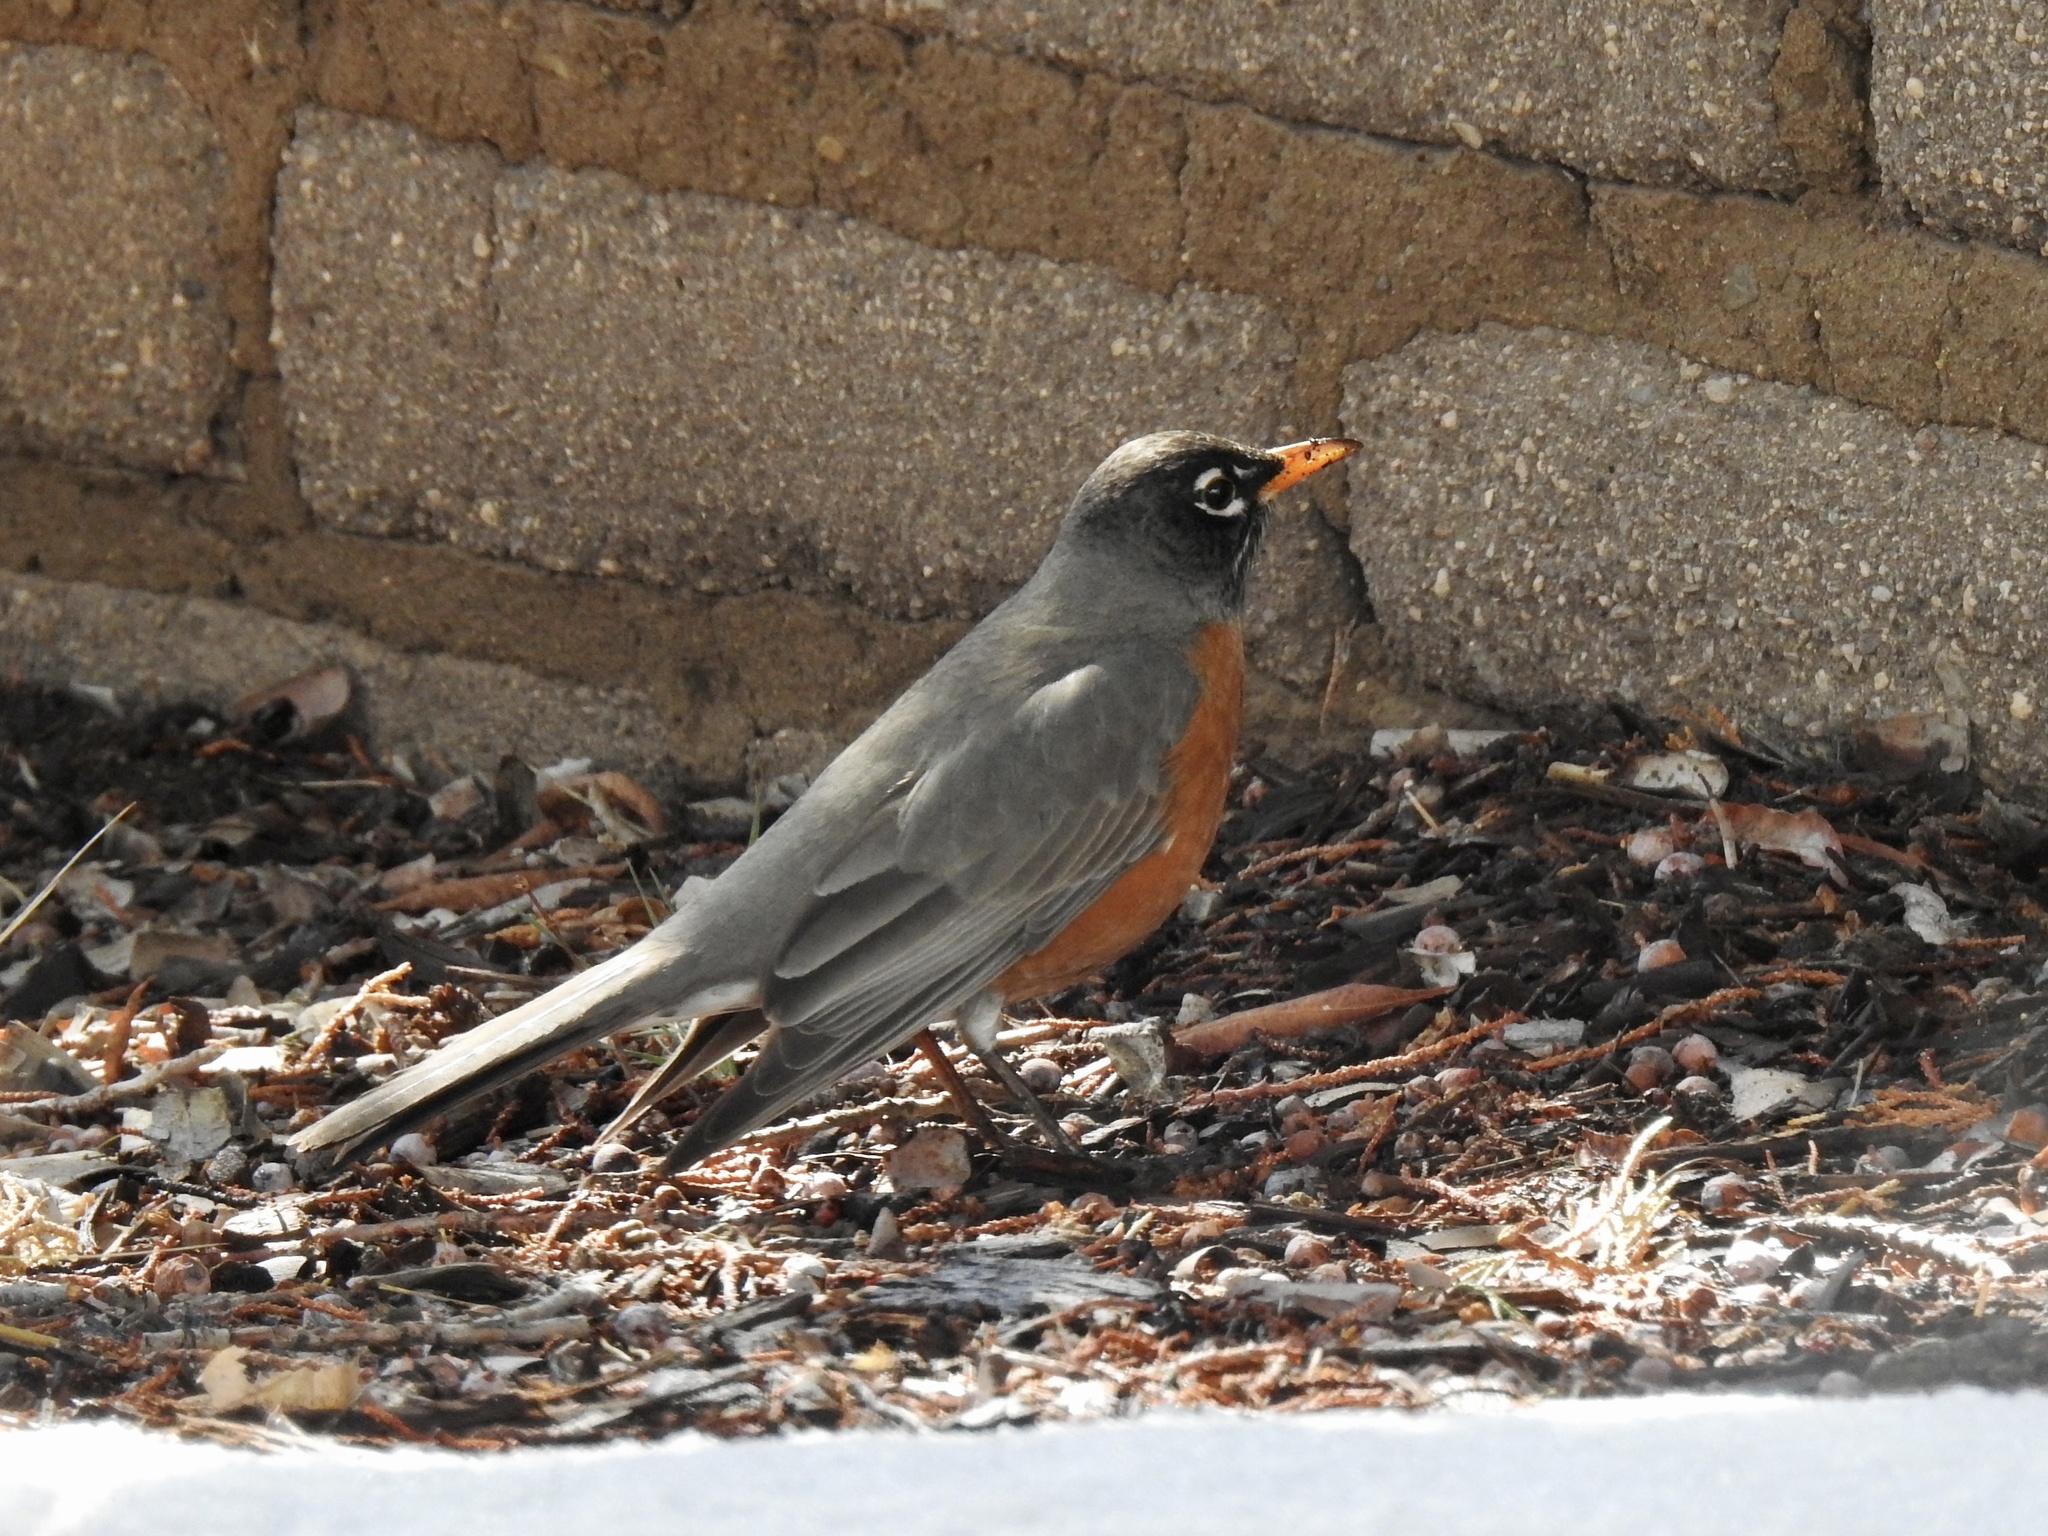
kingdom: Animalia
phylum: Chordata
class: Aves
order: Passeriformes
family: Turdidae
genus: Turdus
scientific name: Turdus migratorius
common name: American robin
